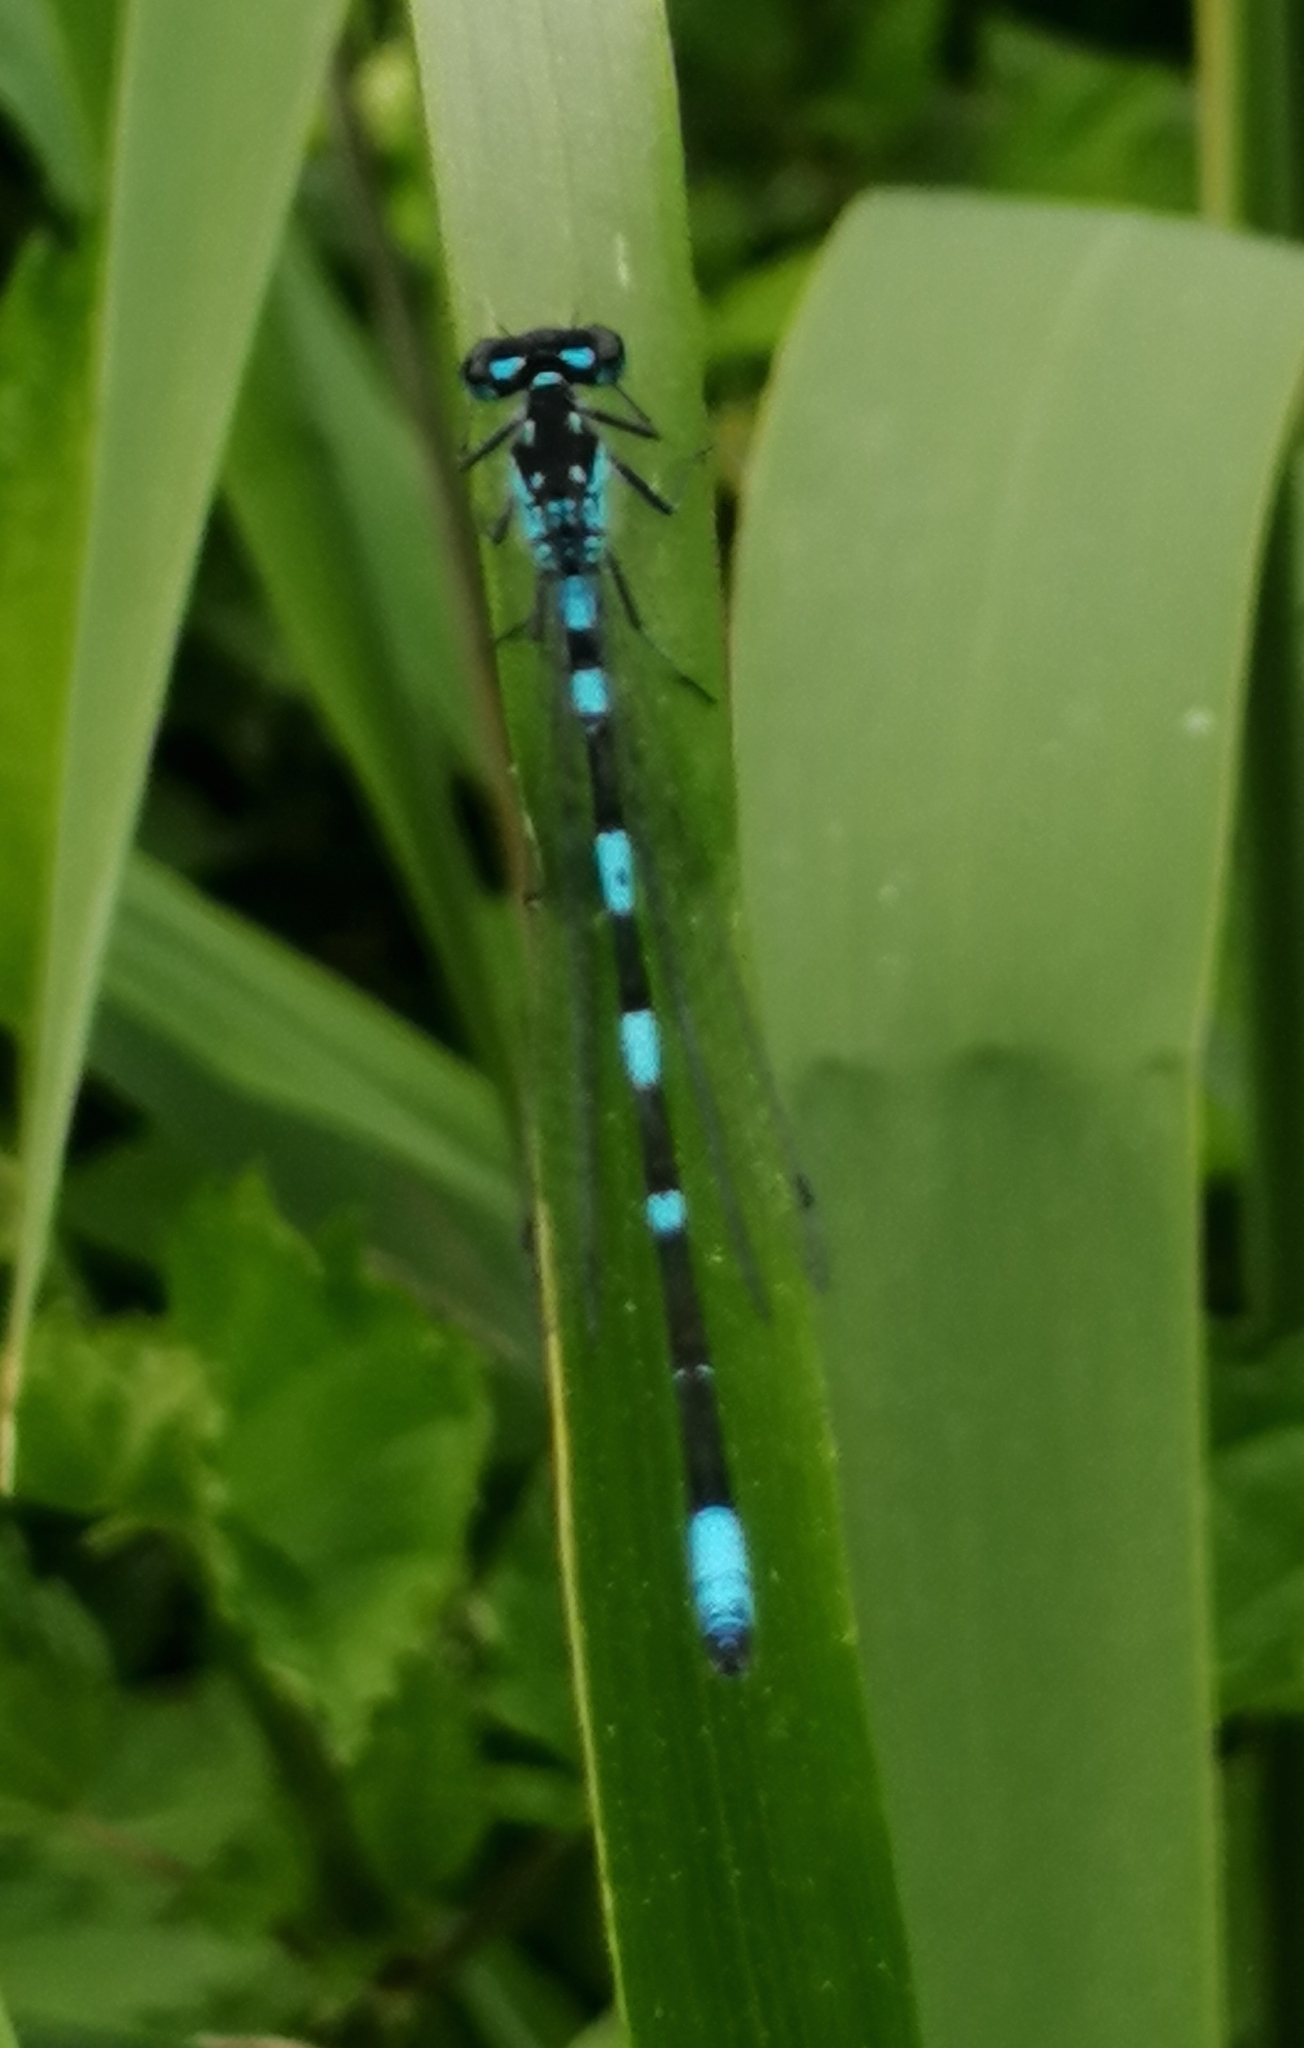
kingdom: Animalia
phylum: Arthropoda
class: Insecta
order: Odonata
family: Coenagrionidae
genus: Coenagrion
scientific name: Coenagrion pulchellum
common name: Variable bluet
